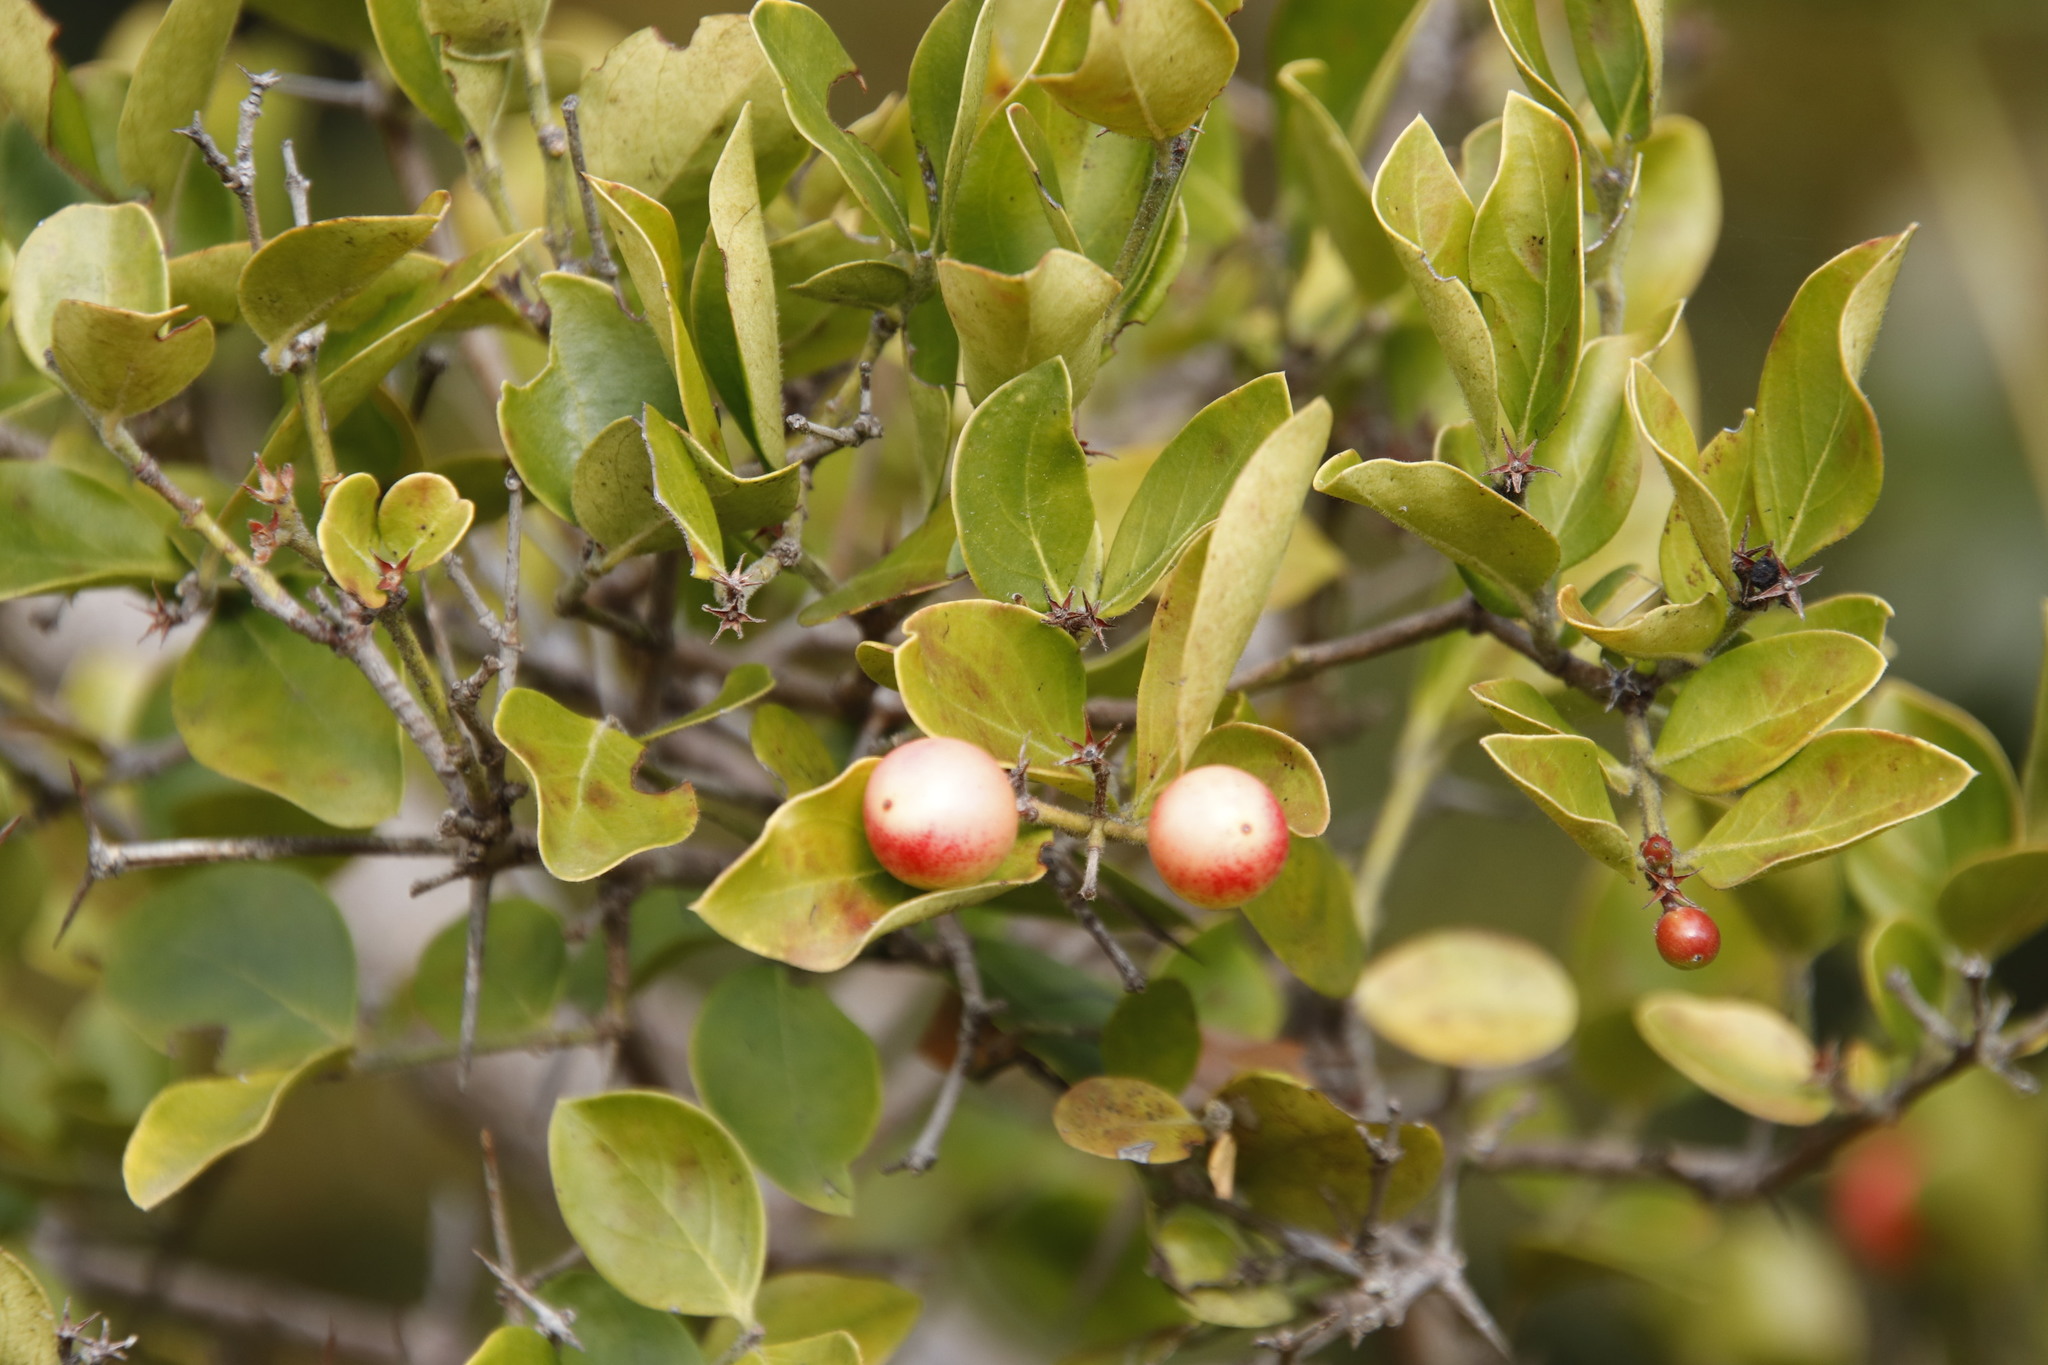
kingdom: Plantae
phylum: Tracheophyta
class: Magnoliopsida
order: Gentianales
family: Apocynaceae
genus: Carissa
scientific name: Carissa spinarum
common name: Egyptian carissa
